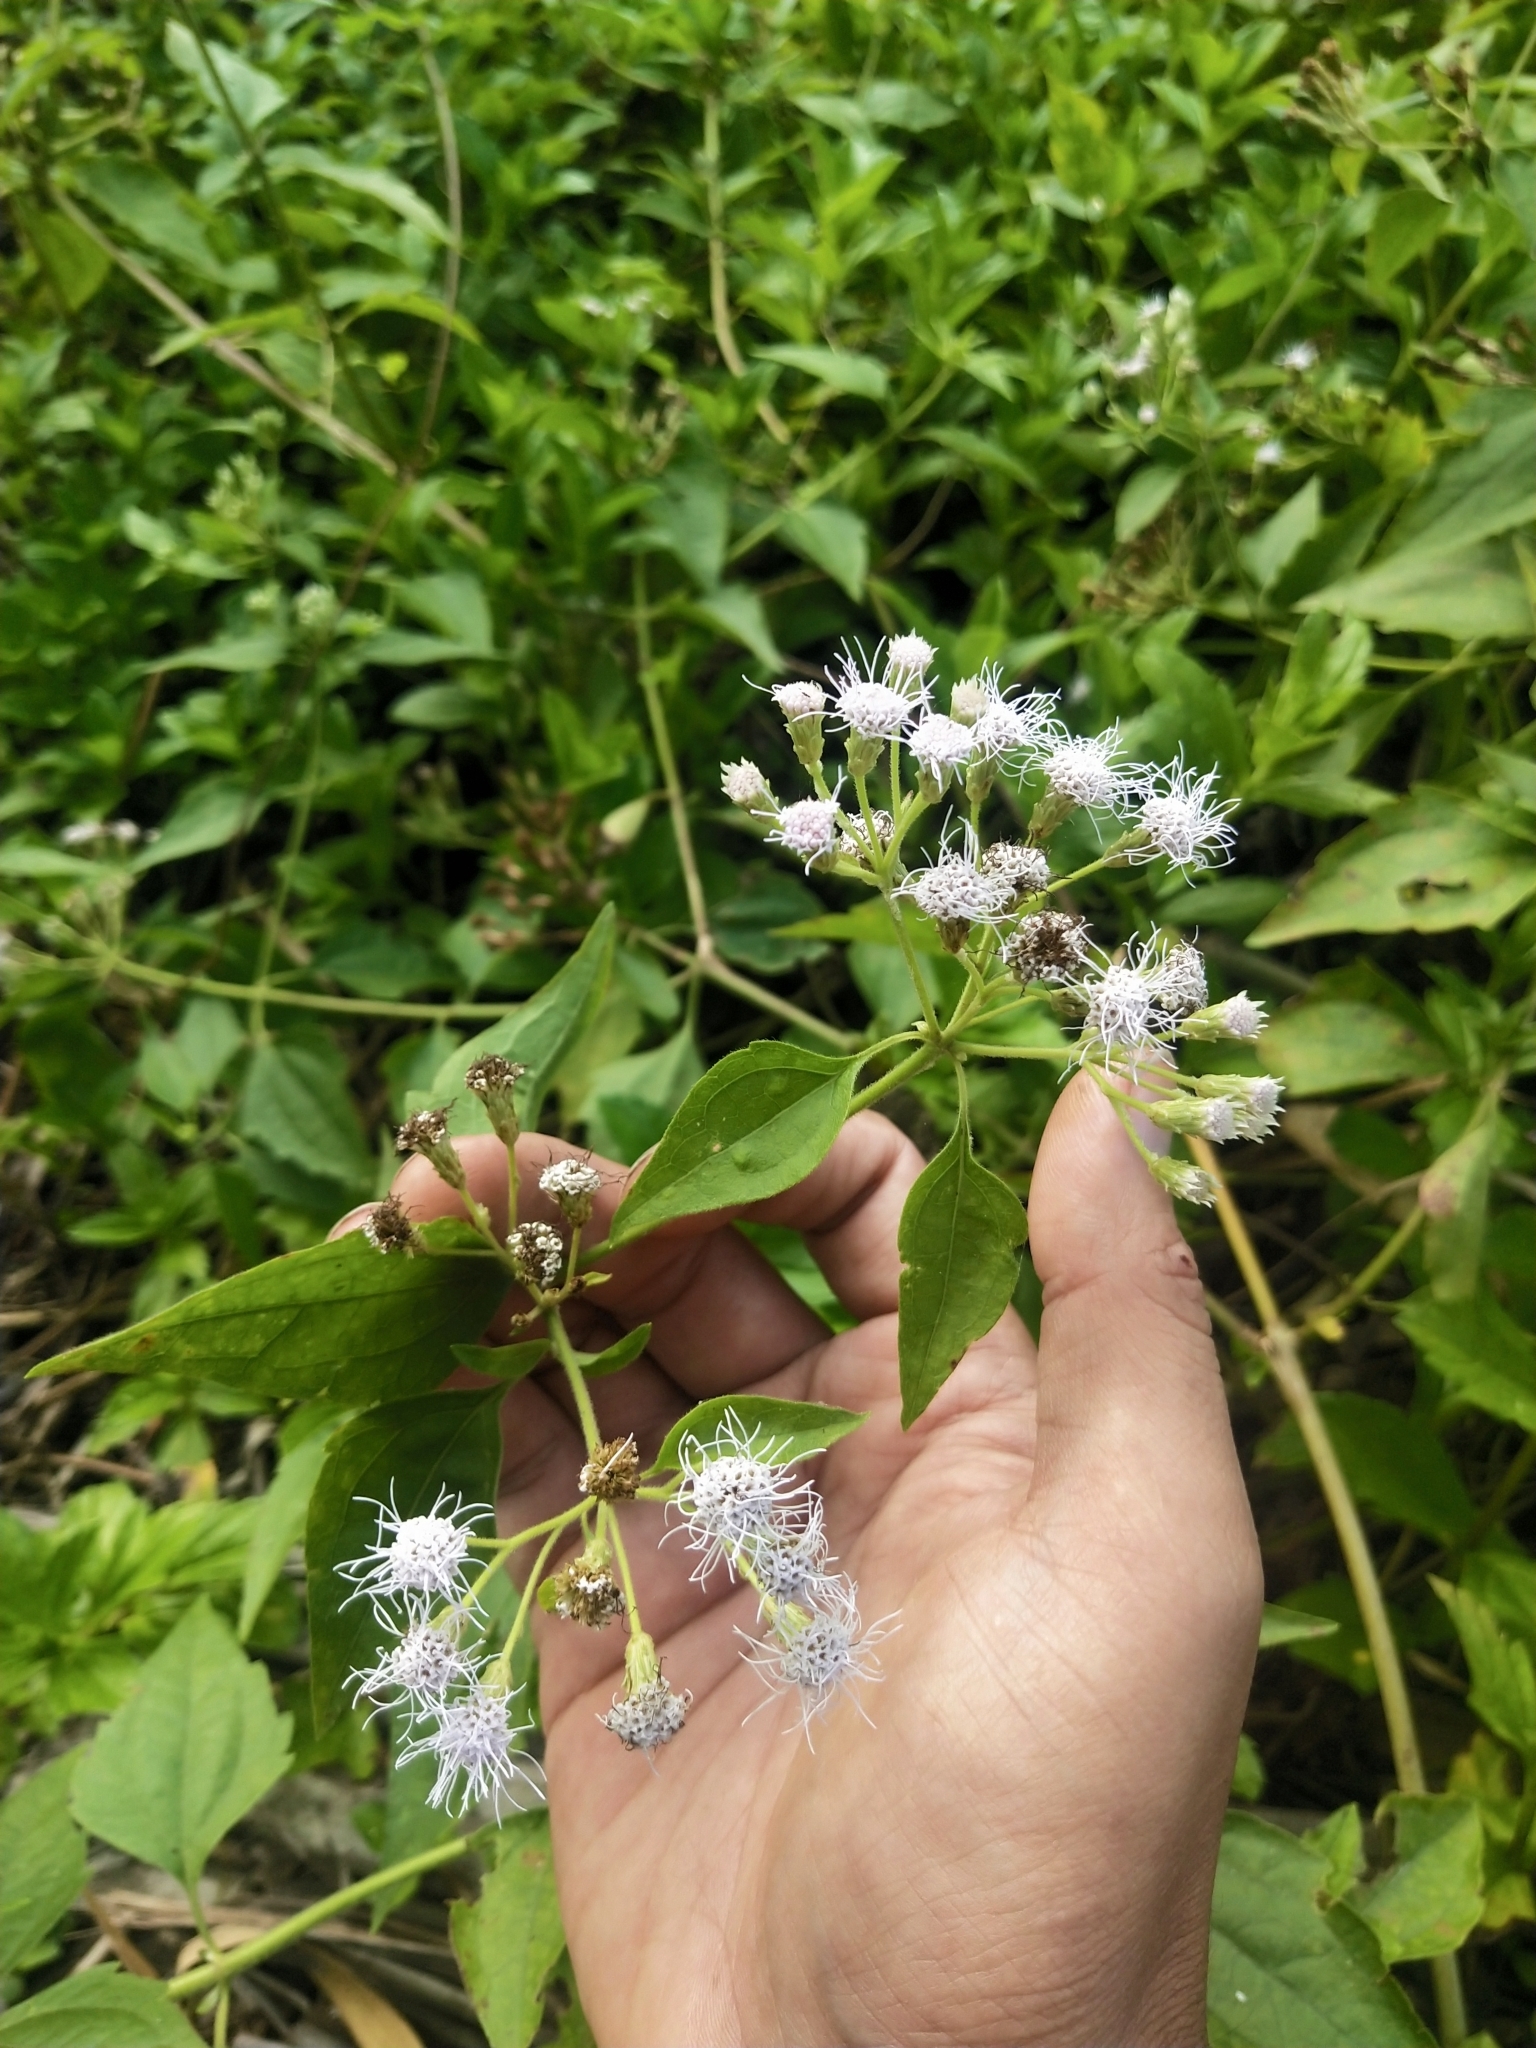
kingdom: Plantae
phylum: Tracheophyta
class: Magnoliopsida
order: Asterales
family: Asteraceae
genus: Chromolaena
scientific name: Chromolaena odorata
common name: Siamweed
